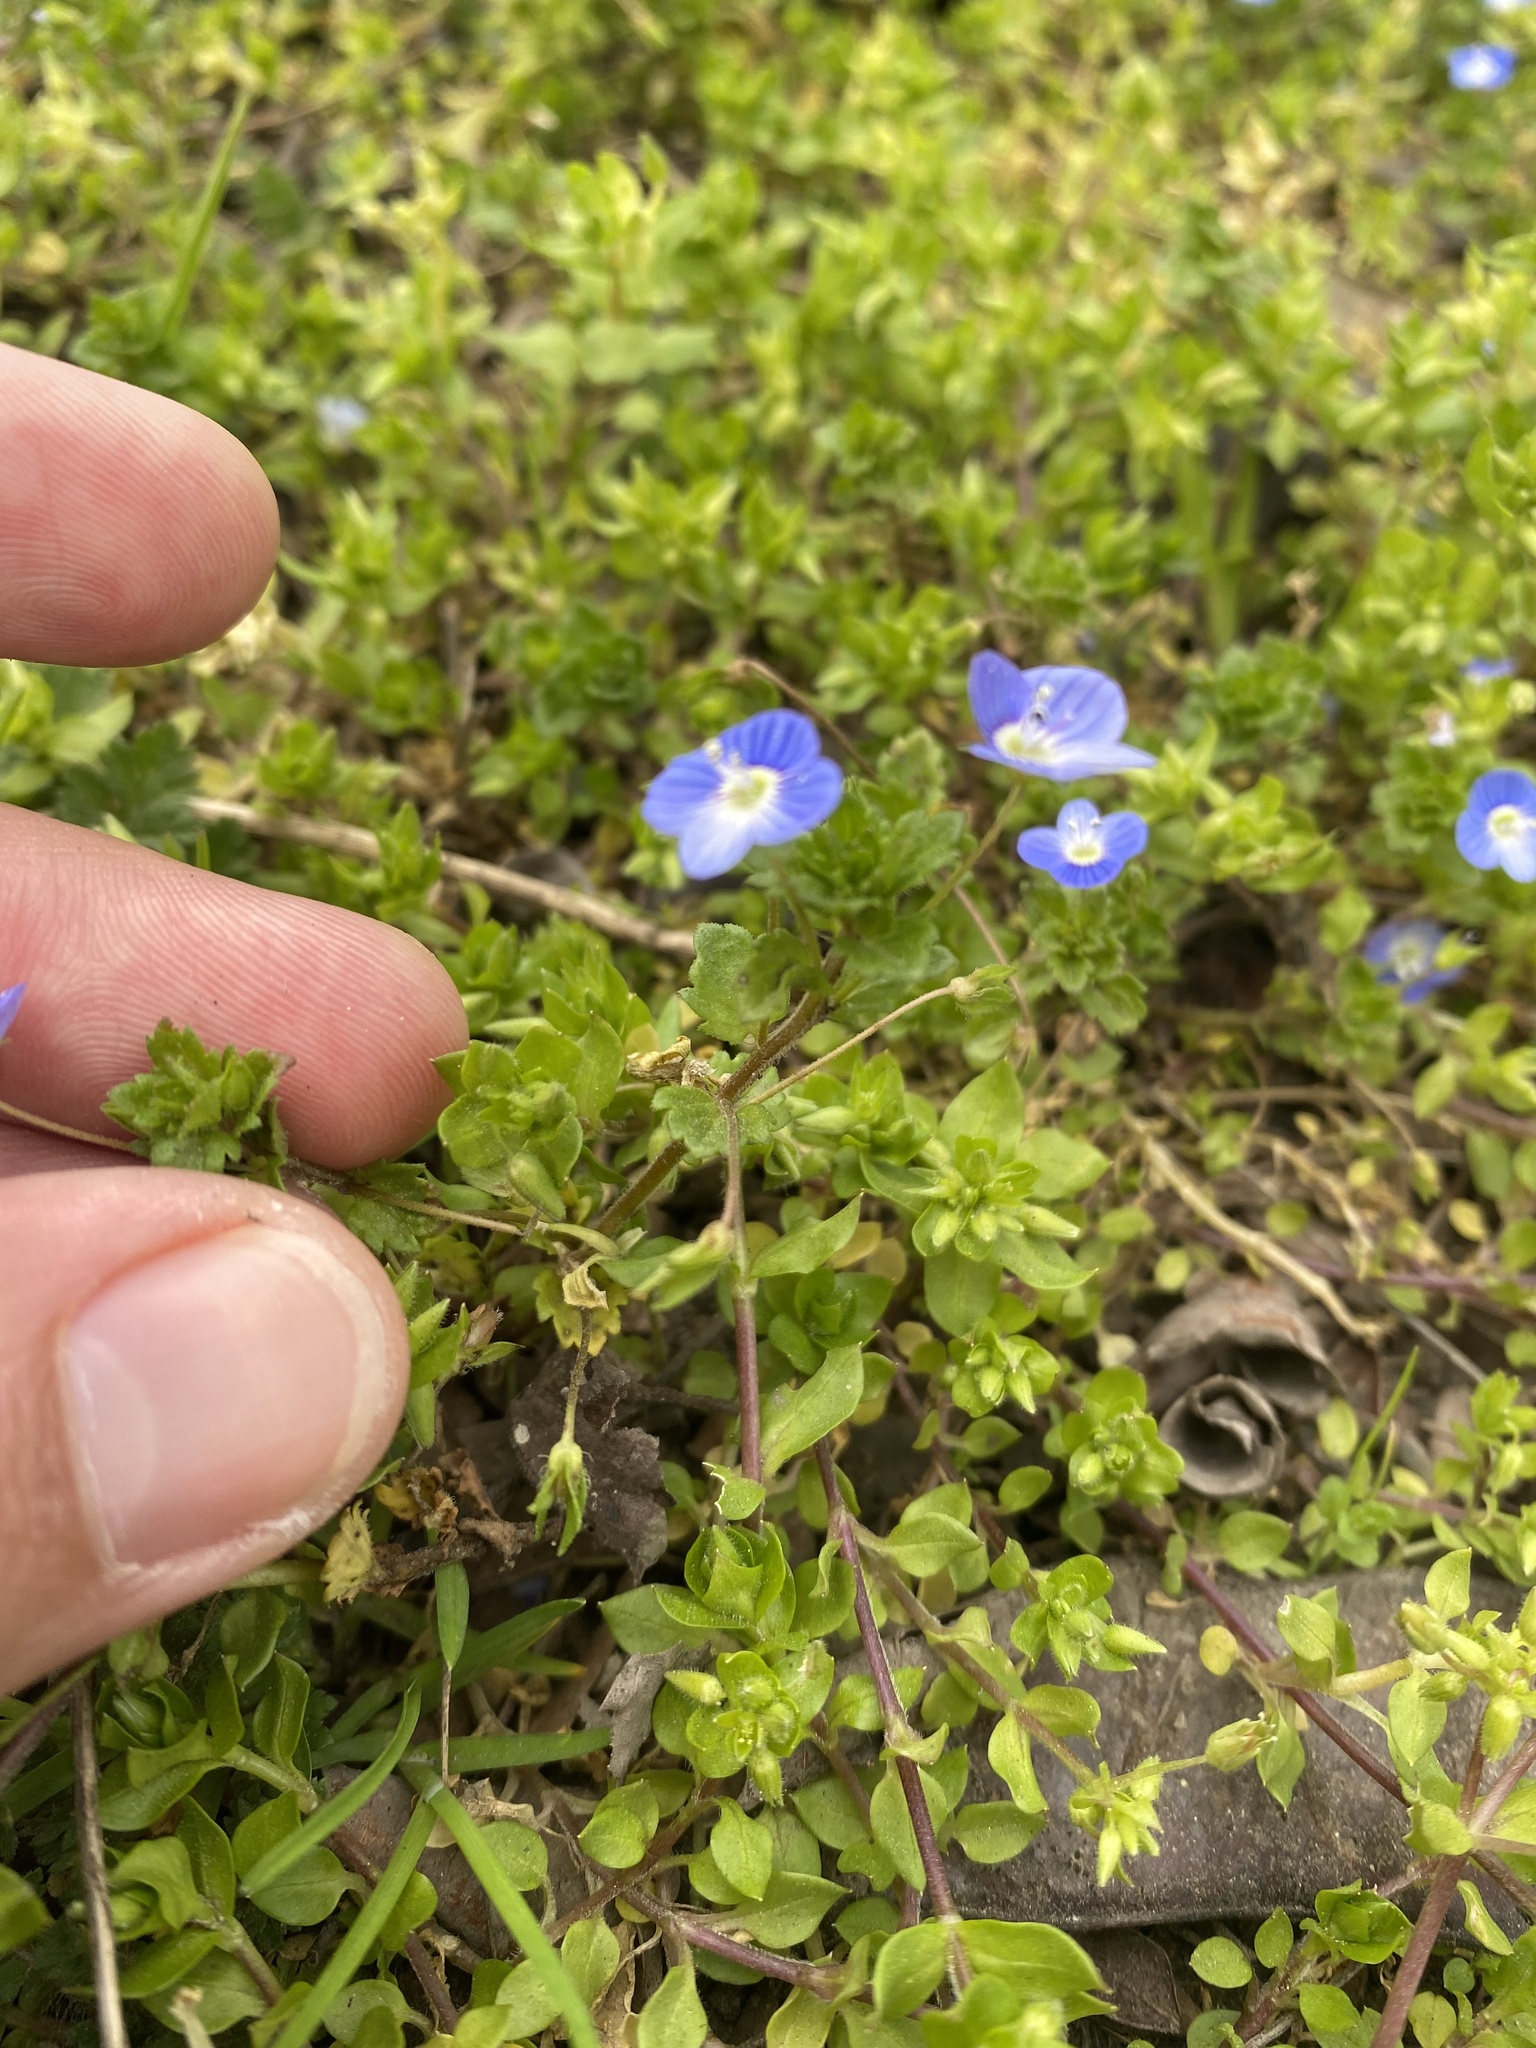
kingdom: Plantae
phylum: Tracheophyta
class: Magnoliopsida
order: Lamiales
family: Plantaginaceae
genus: Veronica
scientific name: Veronica persica
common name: Common field-speedwell
